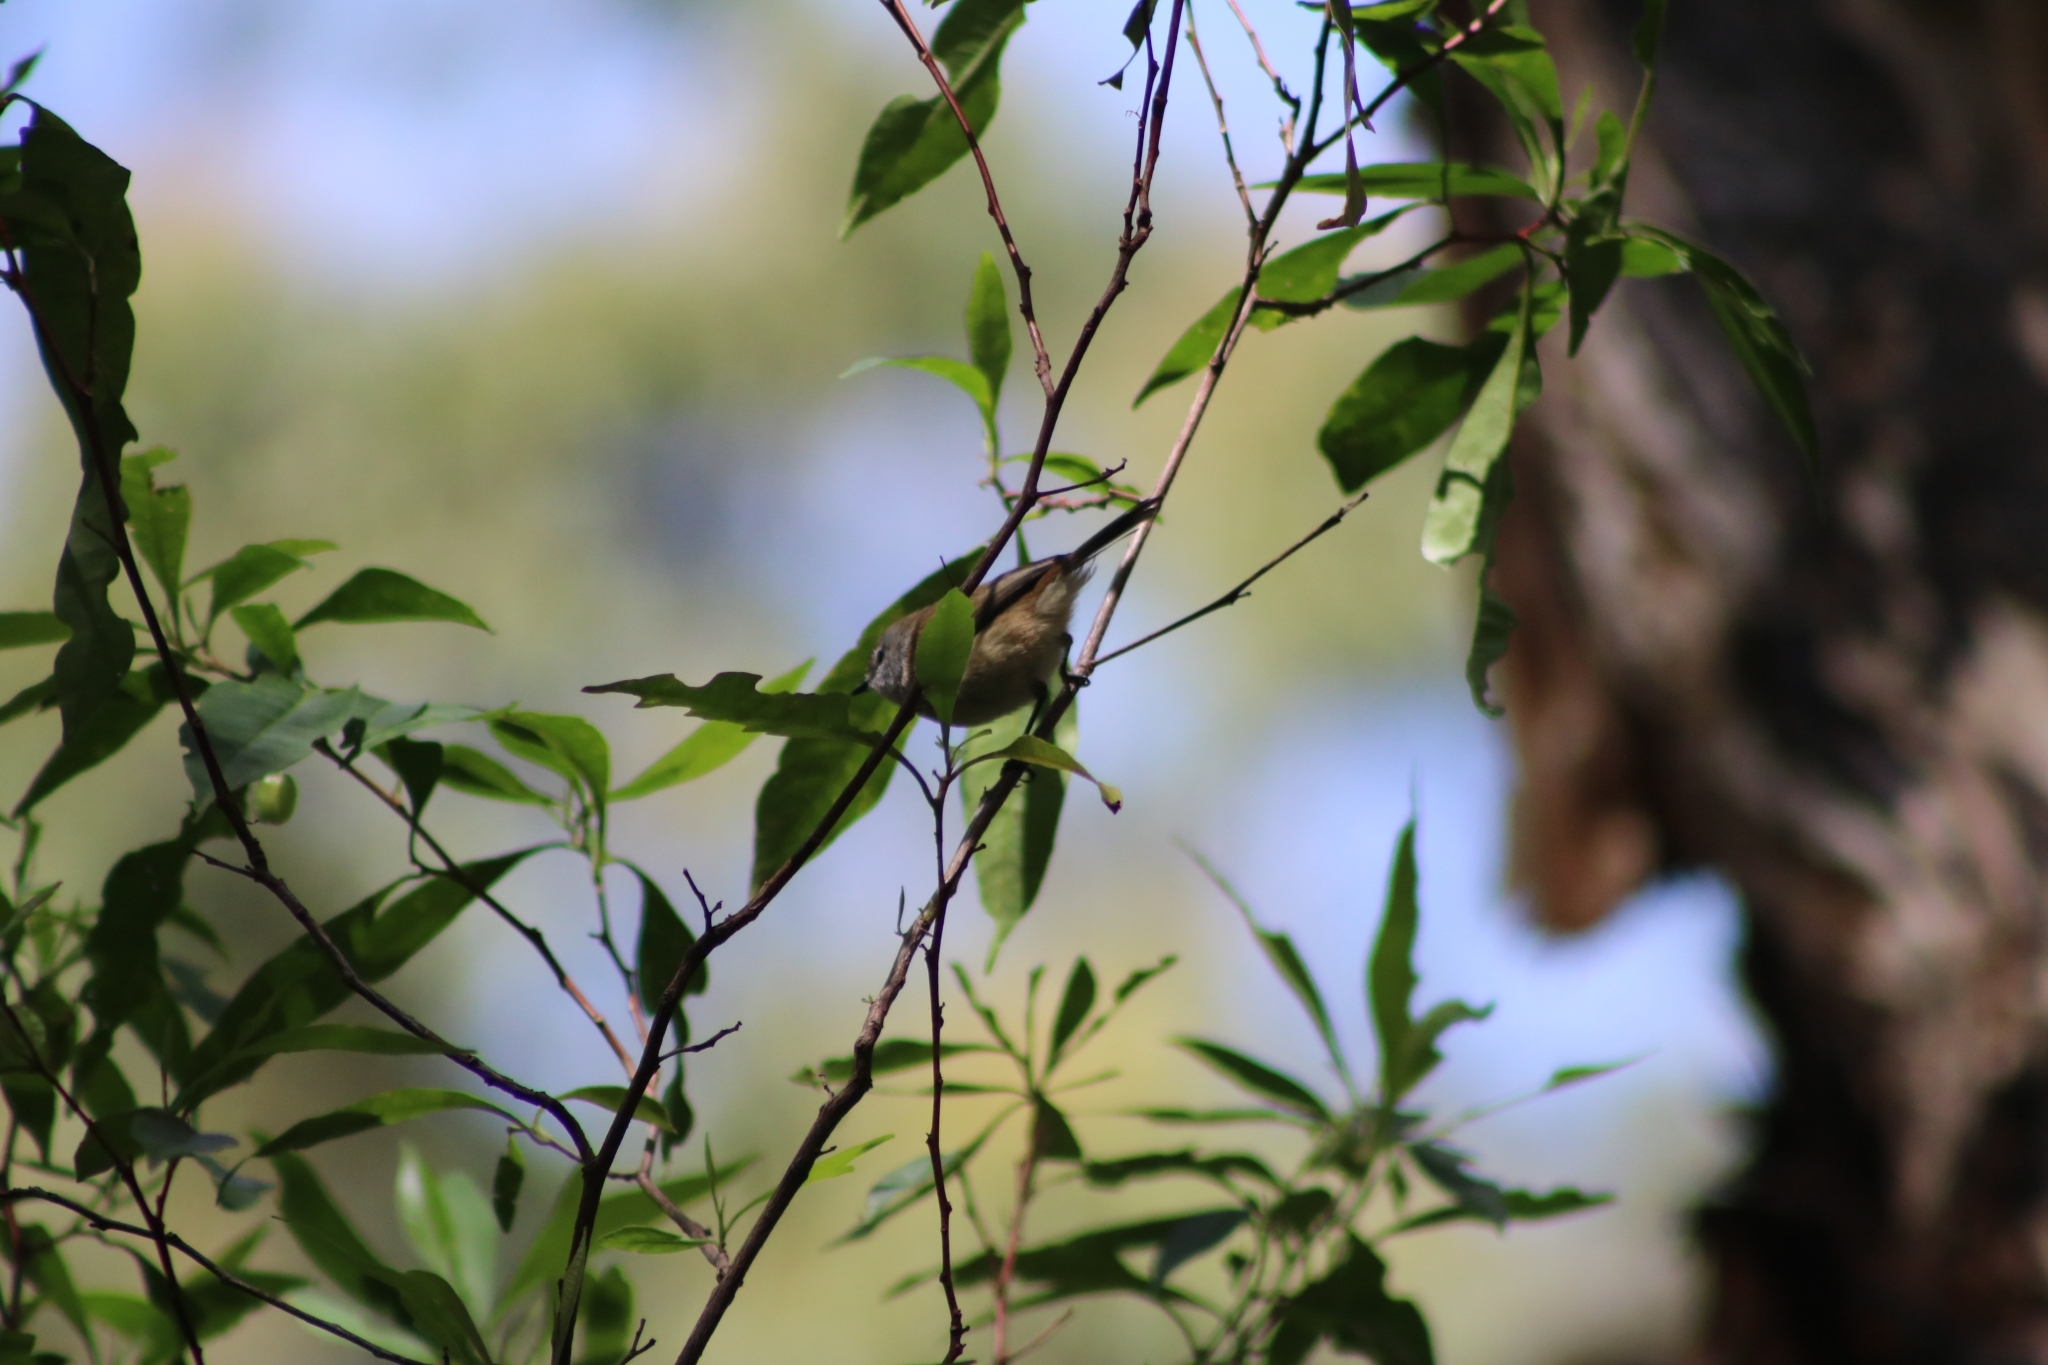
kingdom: Animalia
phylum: Chordata
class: Aves
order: Passeriformes
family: Acanthizidae
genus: Gerygone
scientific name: Gerygone mouki
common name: Brown gerygone
